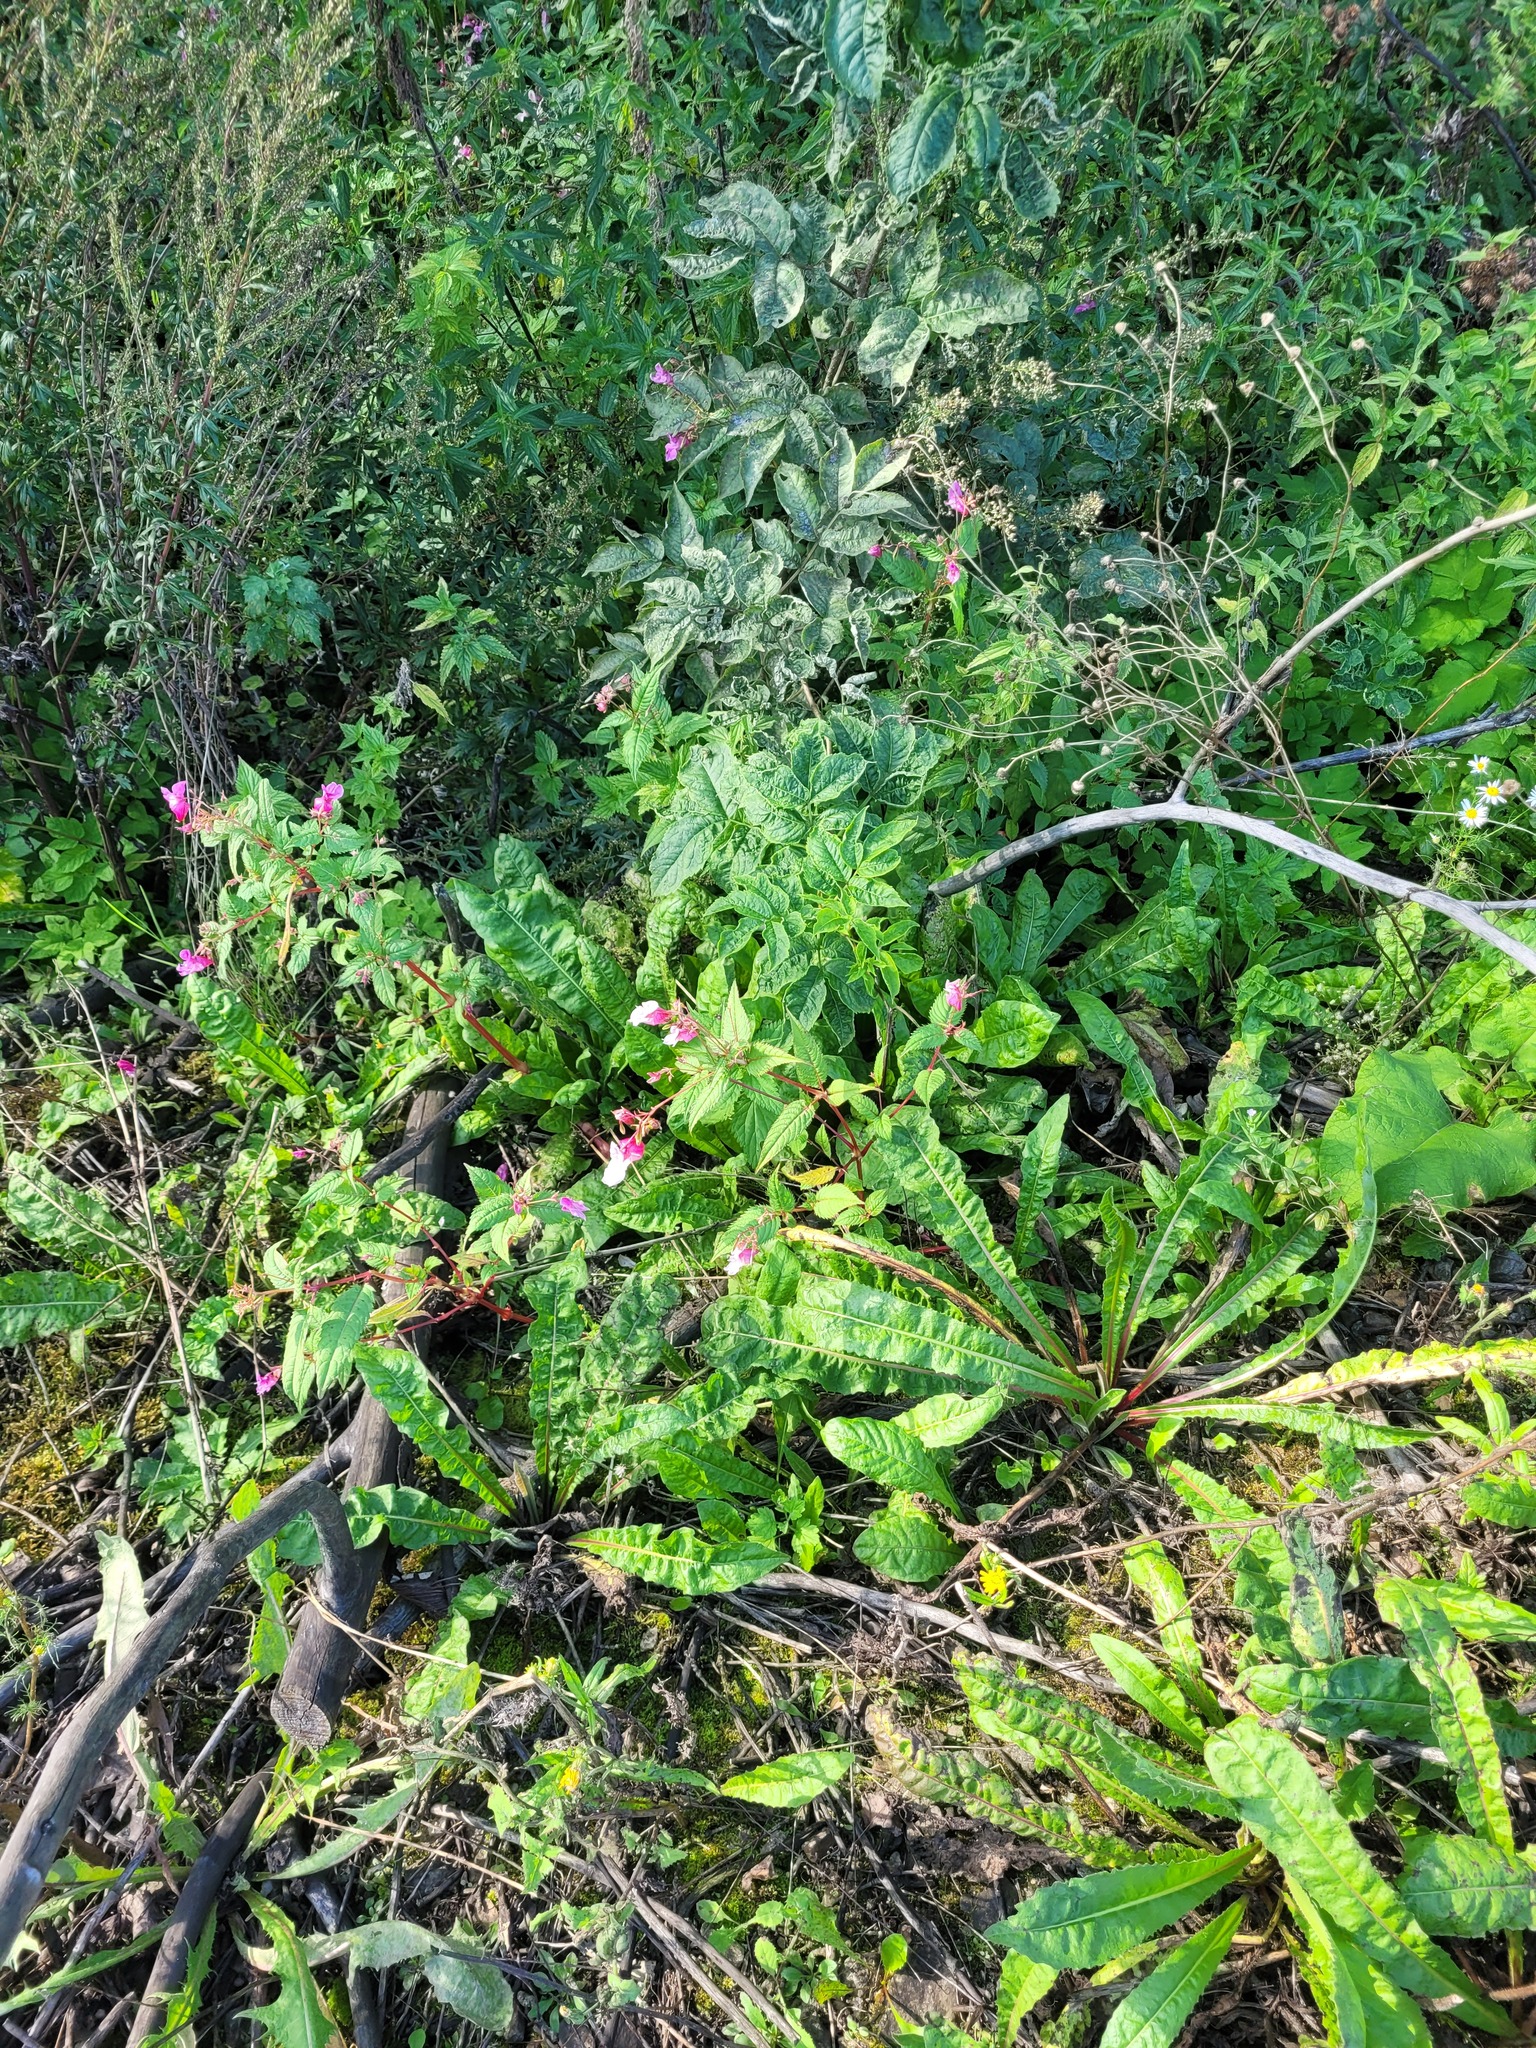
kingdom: Plantae
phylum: Tracheophyta
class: Magnoliopsida
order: Ericales
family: Balsaminaceae
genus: Impatiens
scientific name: Impatiens glandulifera
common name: Himalayan balsam
